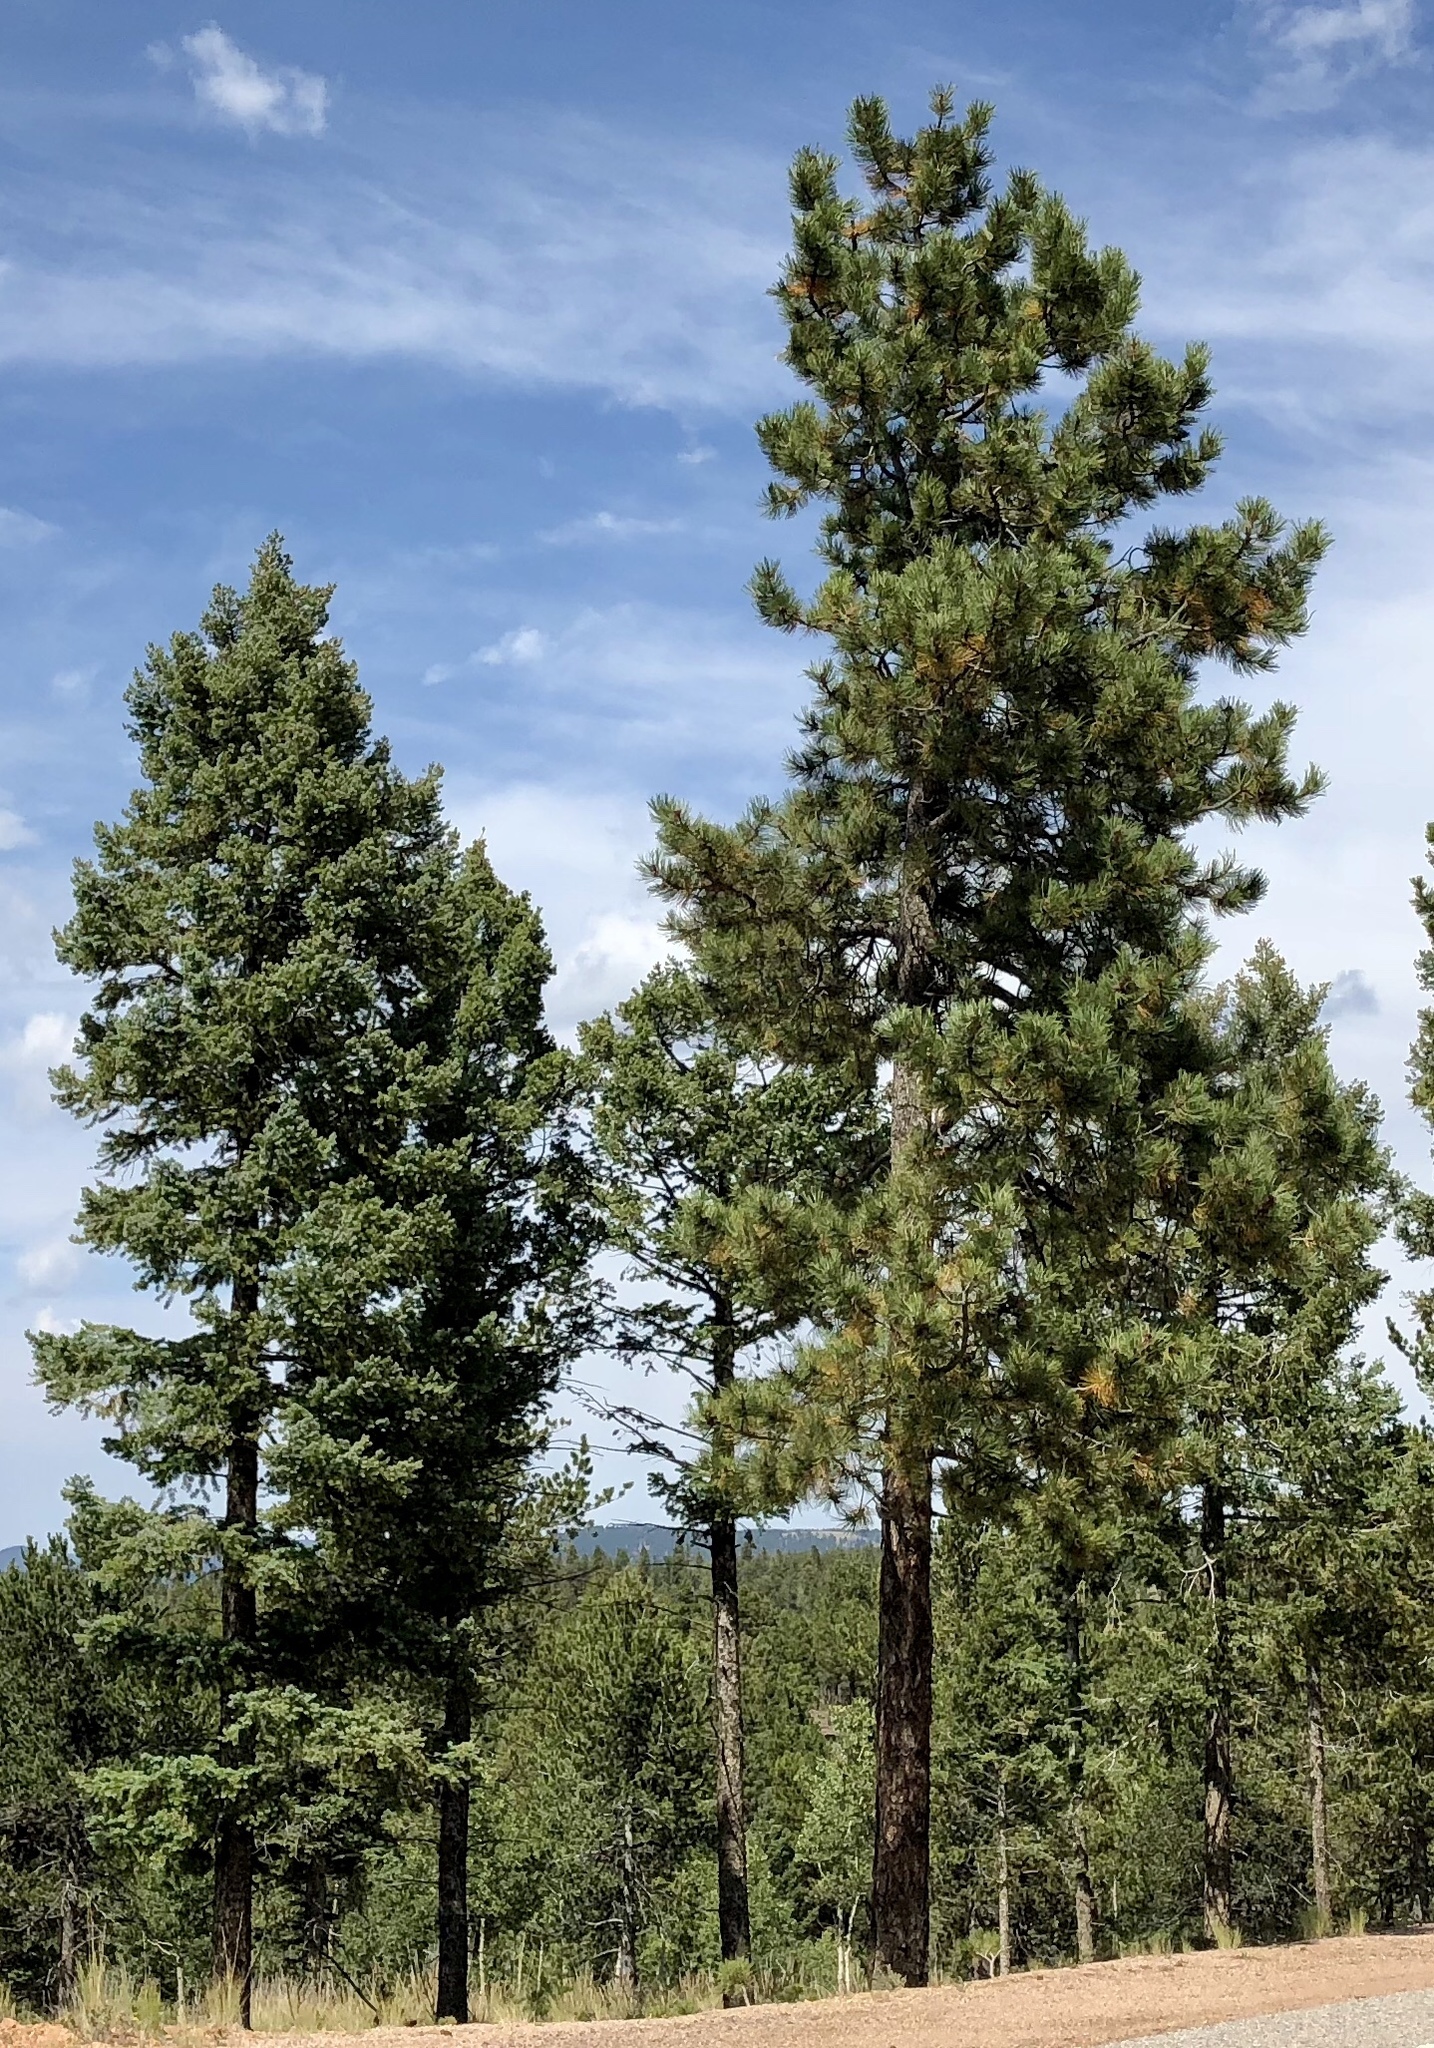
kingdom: Plantae
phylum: Tracheophyta
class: Pinopsida
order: Pinales
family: Pinaceae
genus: Pinus
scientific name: Pinus ponderosa
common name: Western yellow-pine
